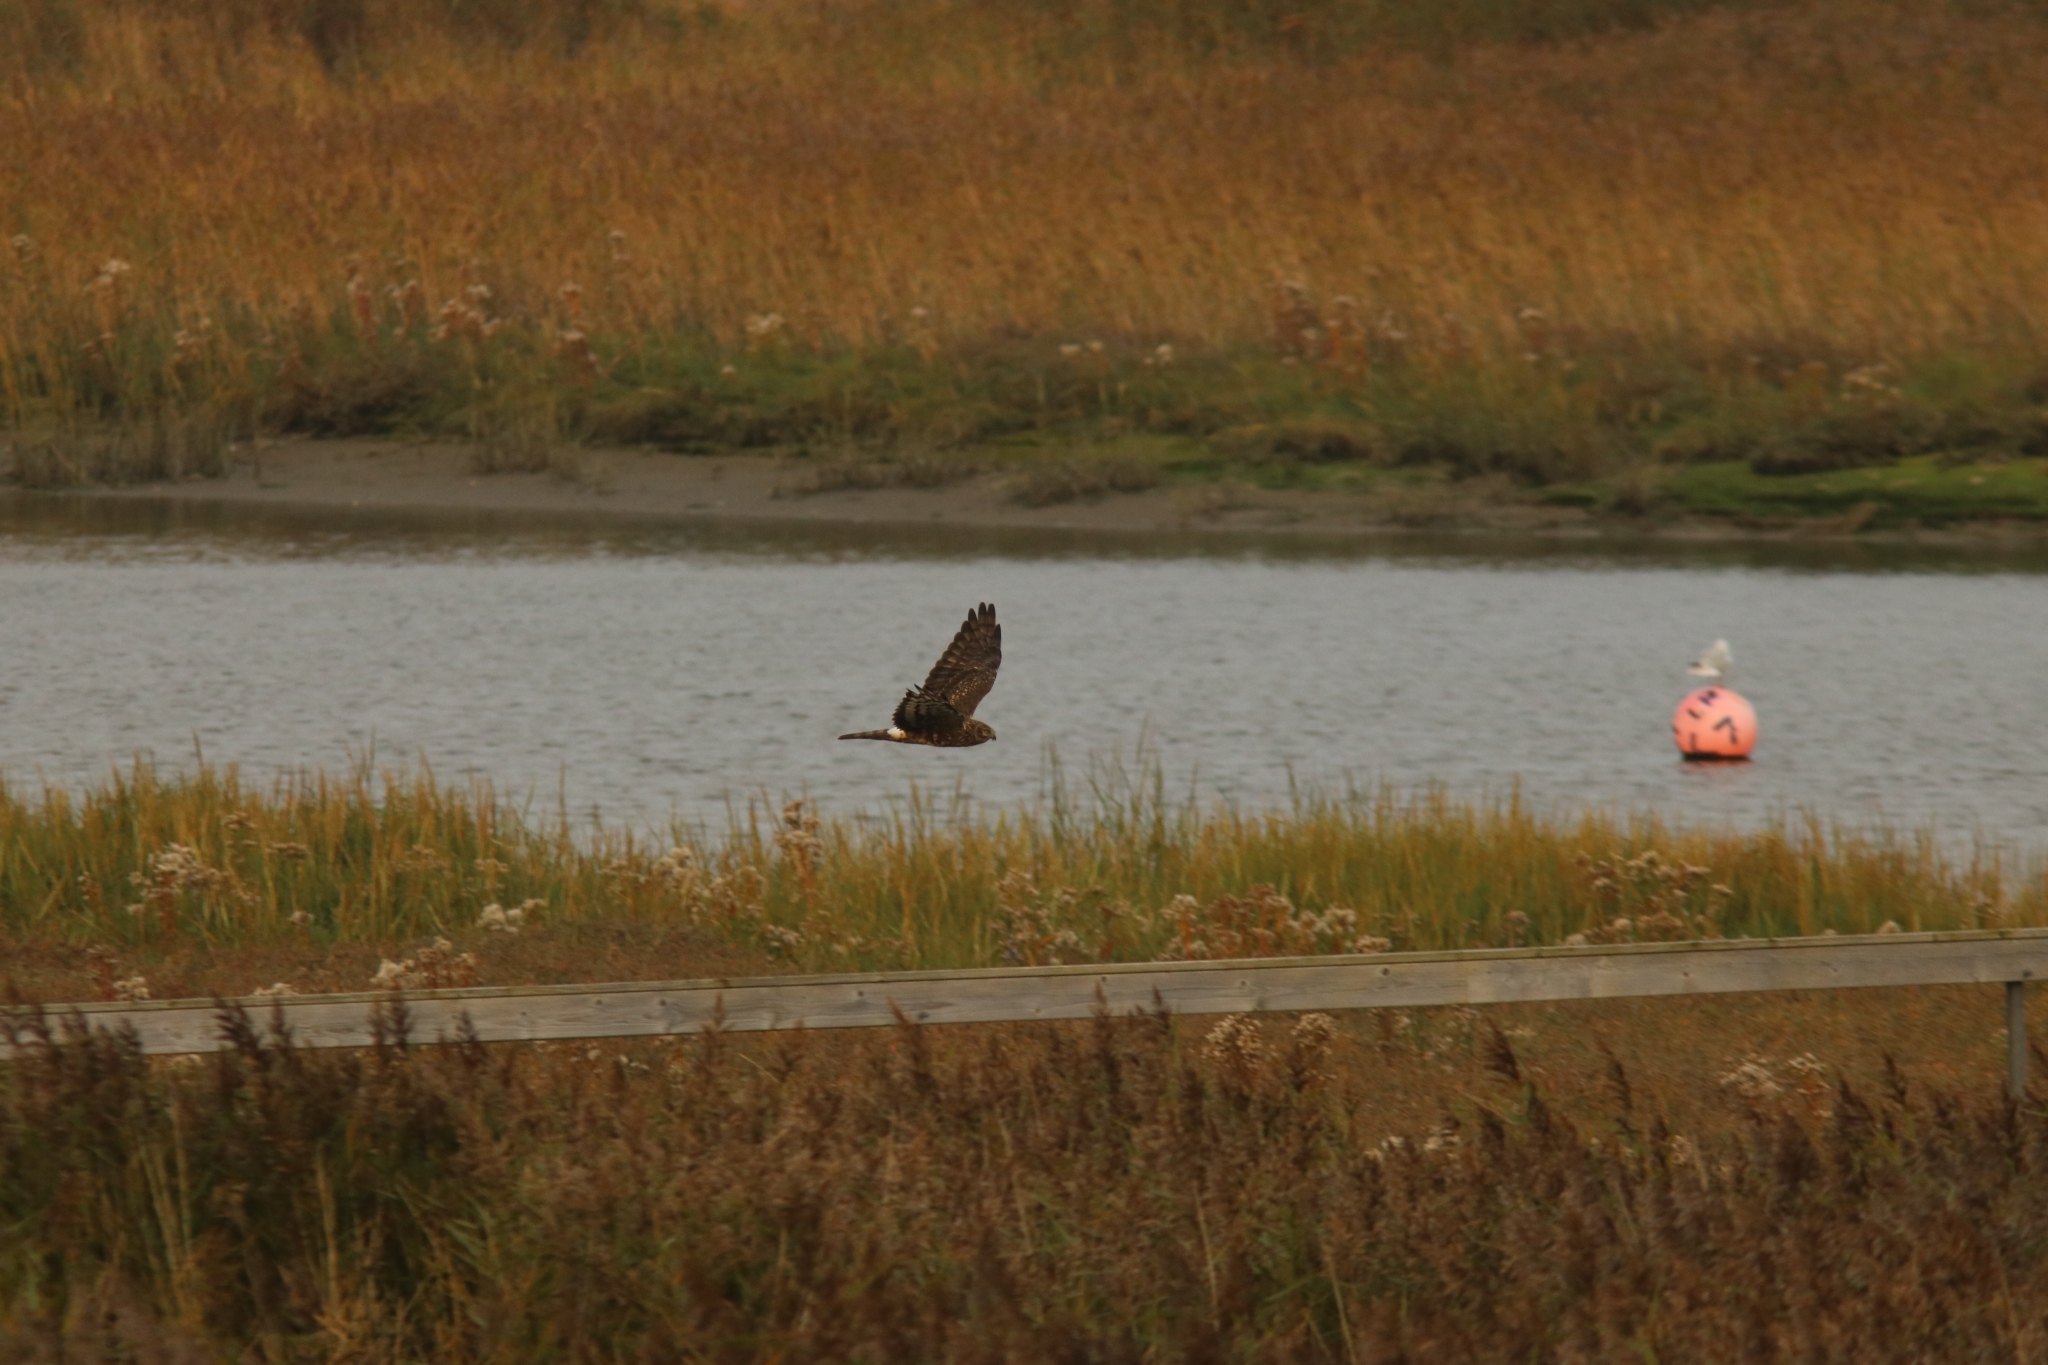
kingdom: Animalia
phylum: Chordata
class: Aves
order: Accipitriformes
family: Accipitridae
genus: Circus
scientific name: Circus cyaneus
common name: Hen harrier
